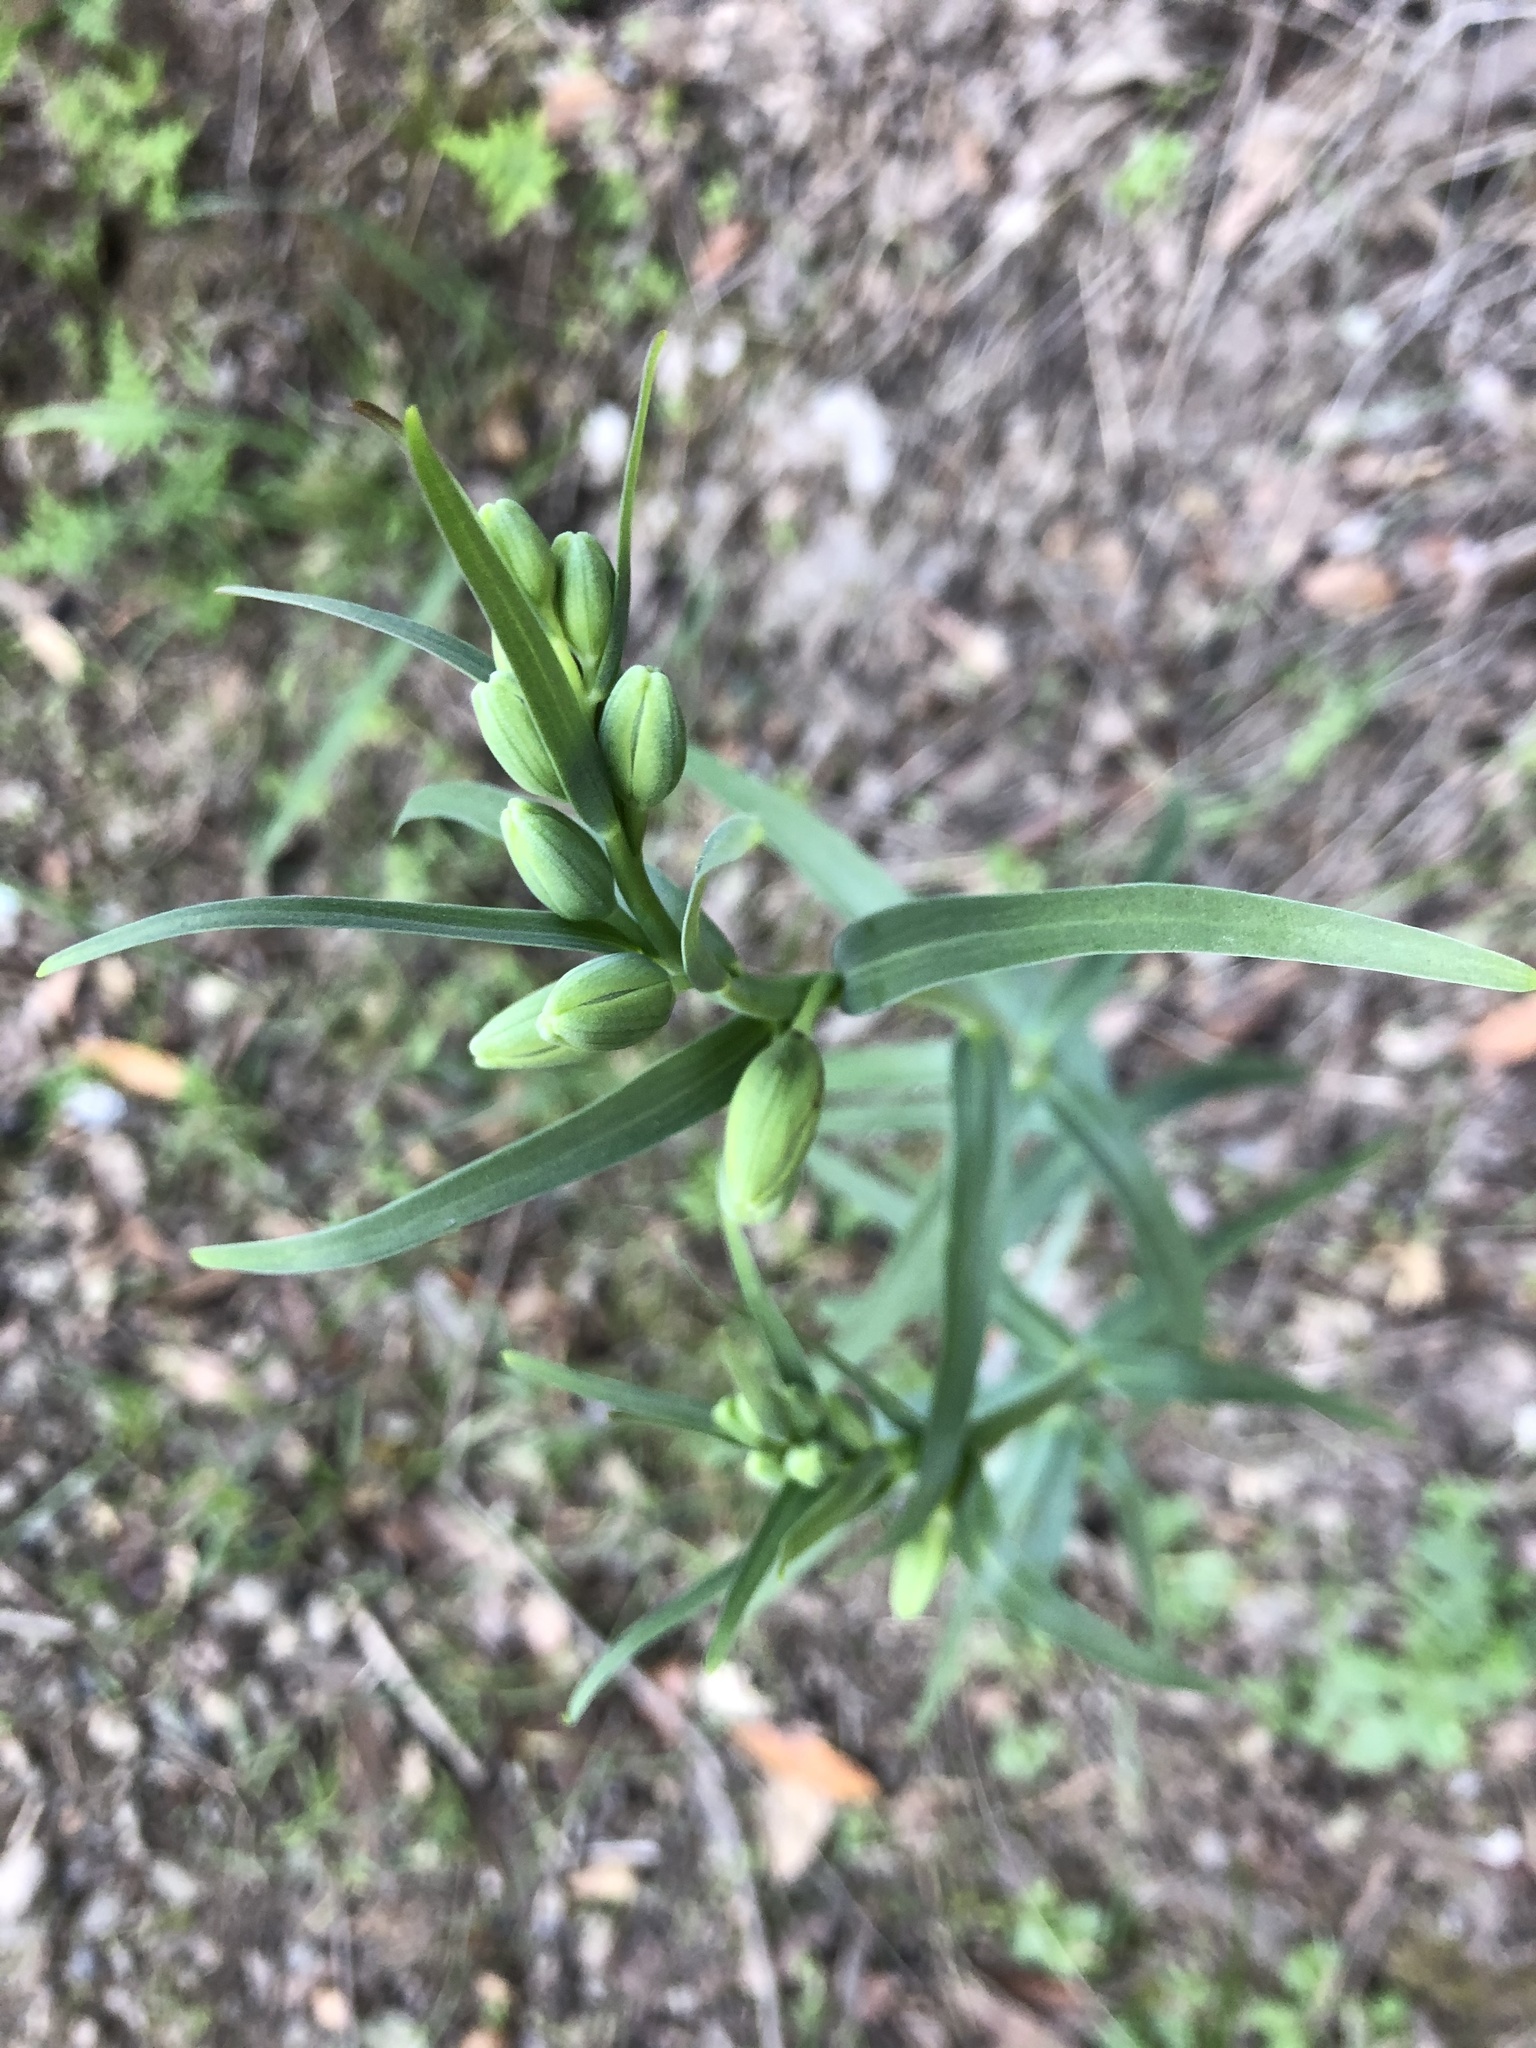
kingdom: Plantae
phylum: Tracheophyta
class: Liliopsida
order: Liliales
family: Liliaceae
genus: Fritillaria
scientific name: Fritillaria affinis
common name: Ojai fritillary
